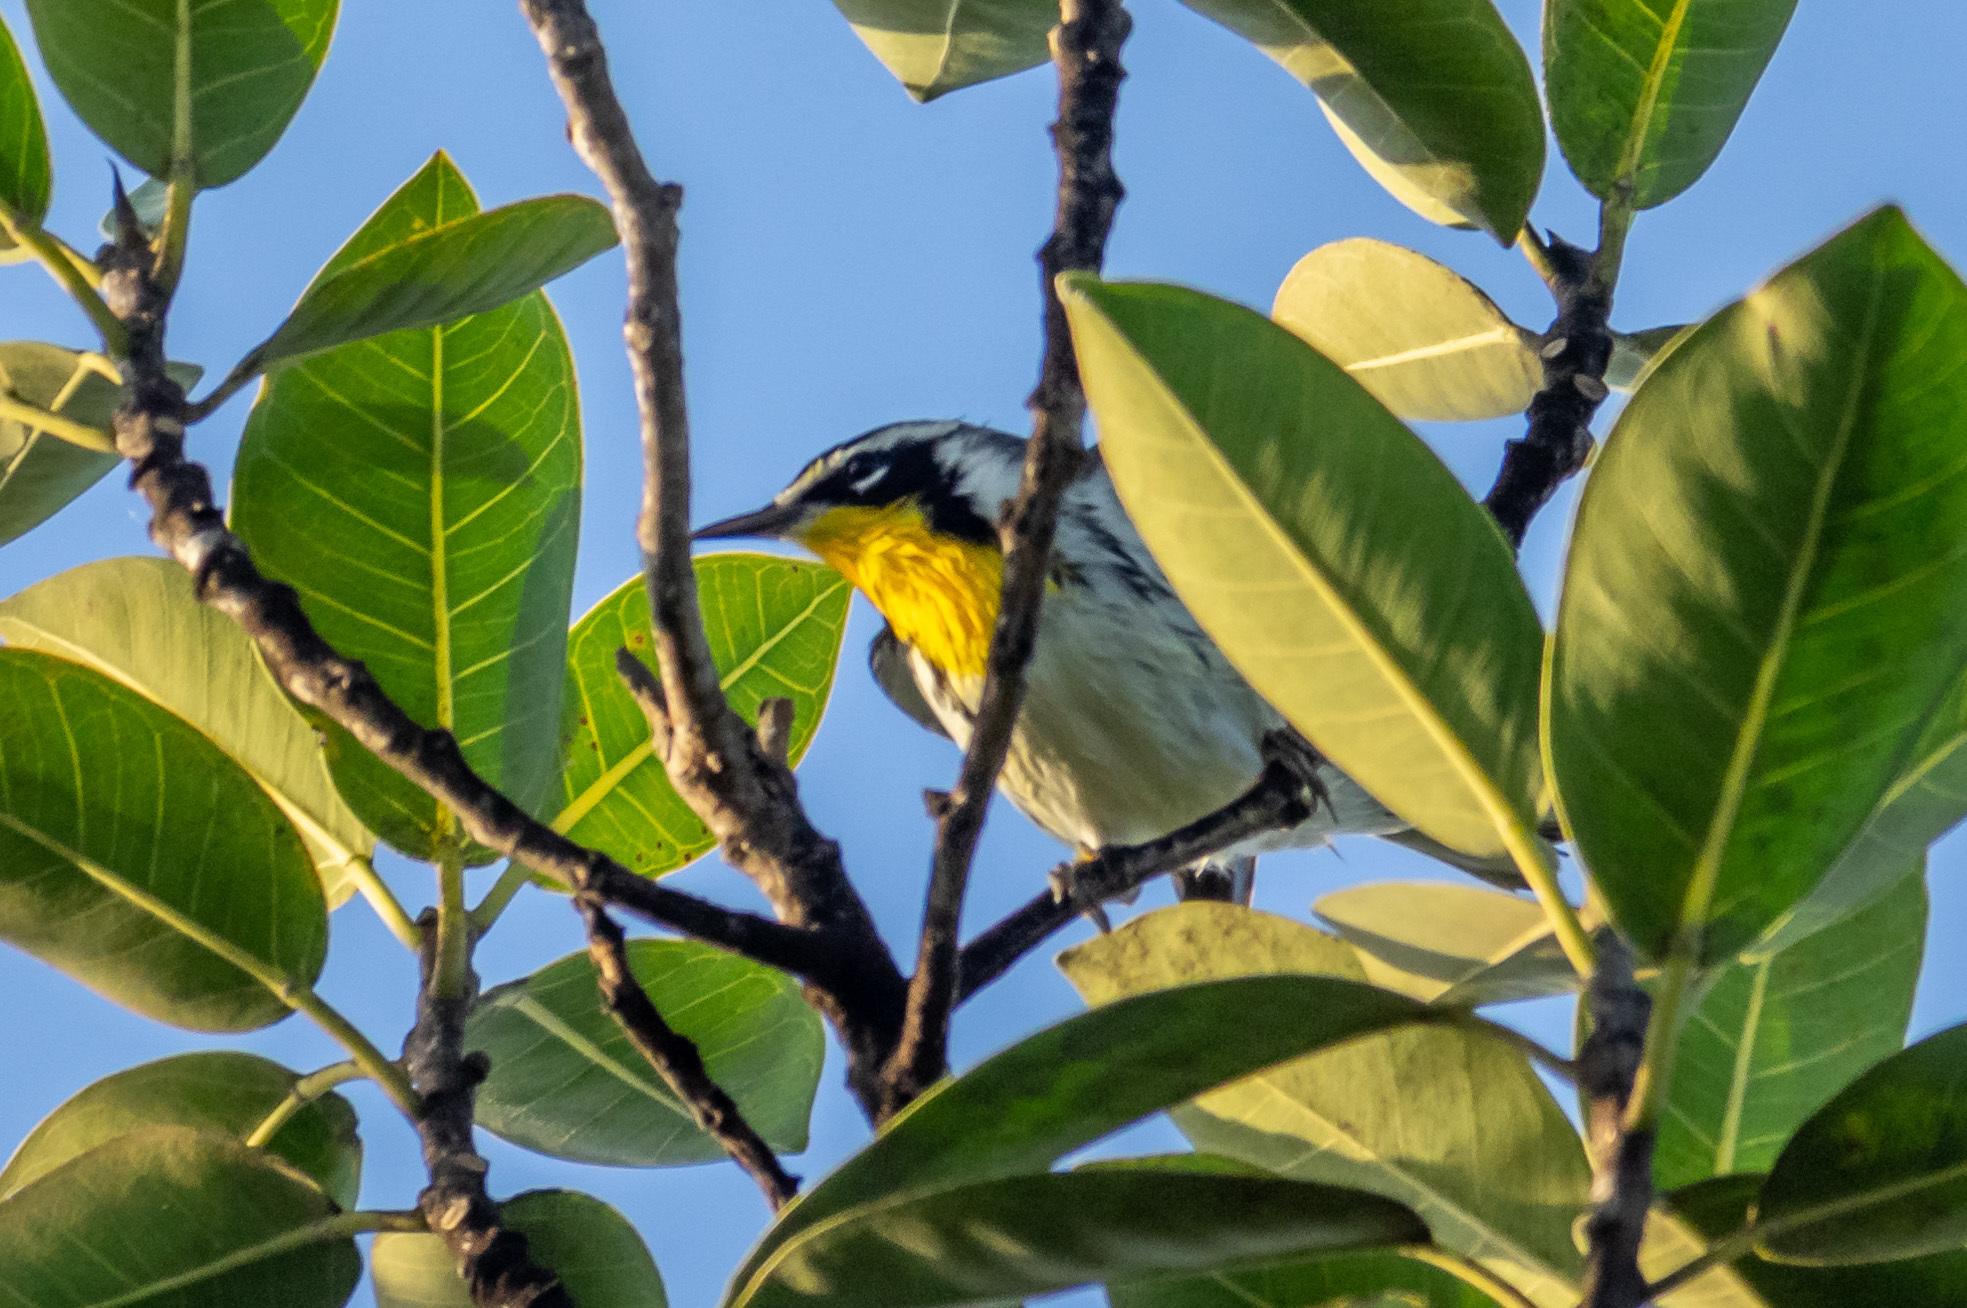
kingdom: Animalia
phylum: Chordata
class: Aves
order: Passeriformes
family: Parulidae
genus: Setophaga
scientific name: Setophaga dominica
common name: Yellow-throated warbler
